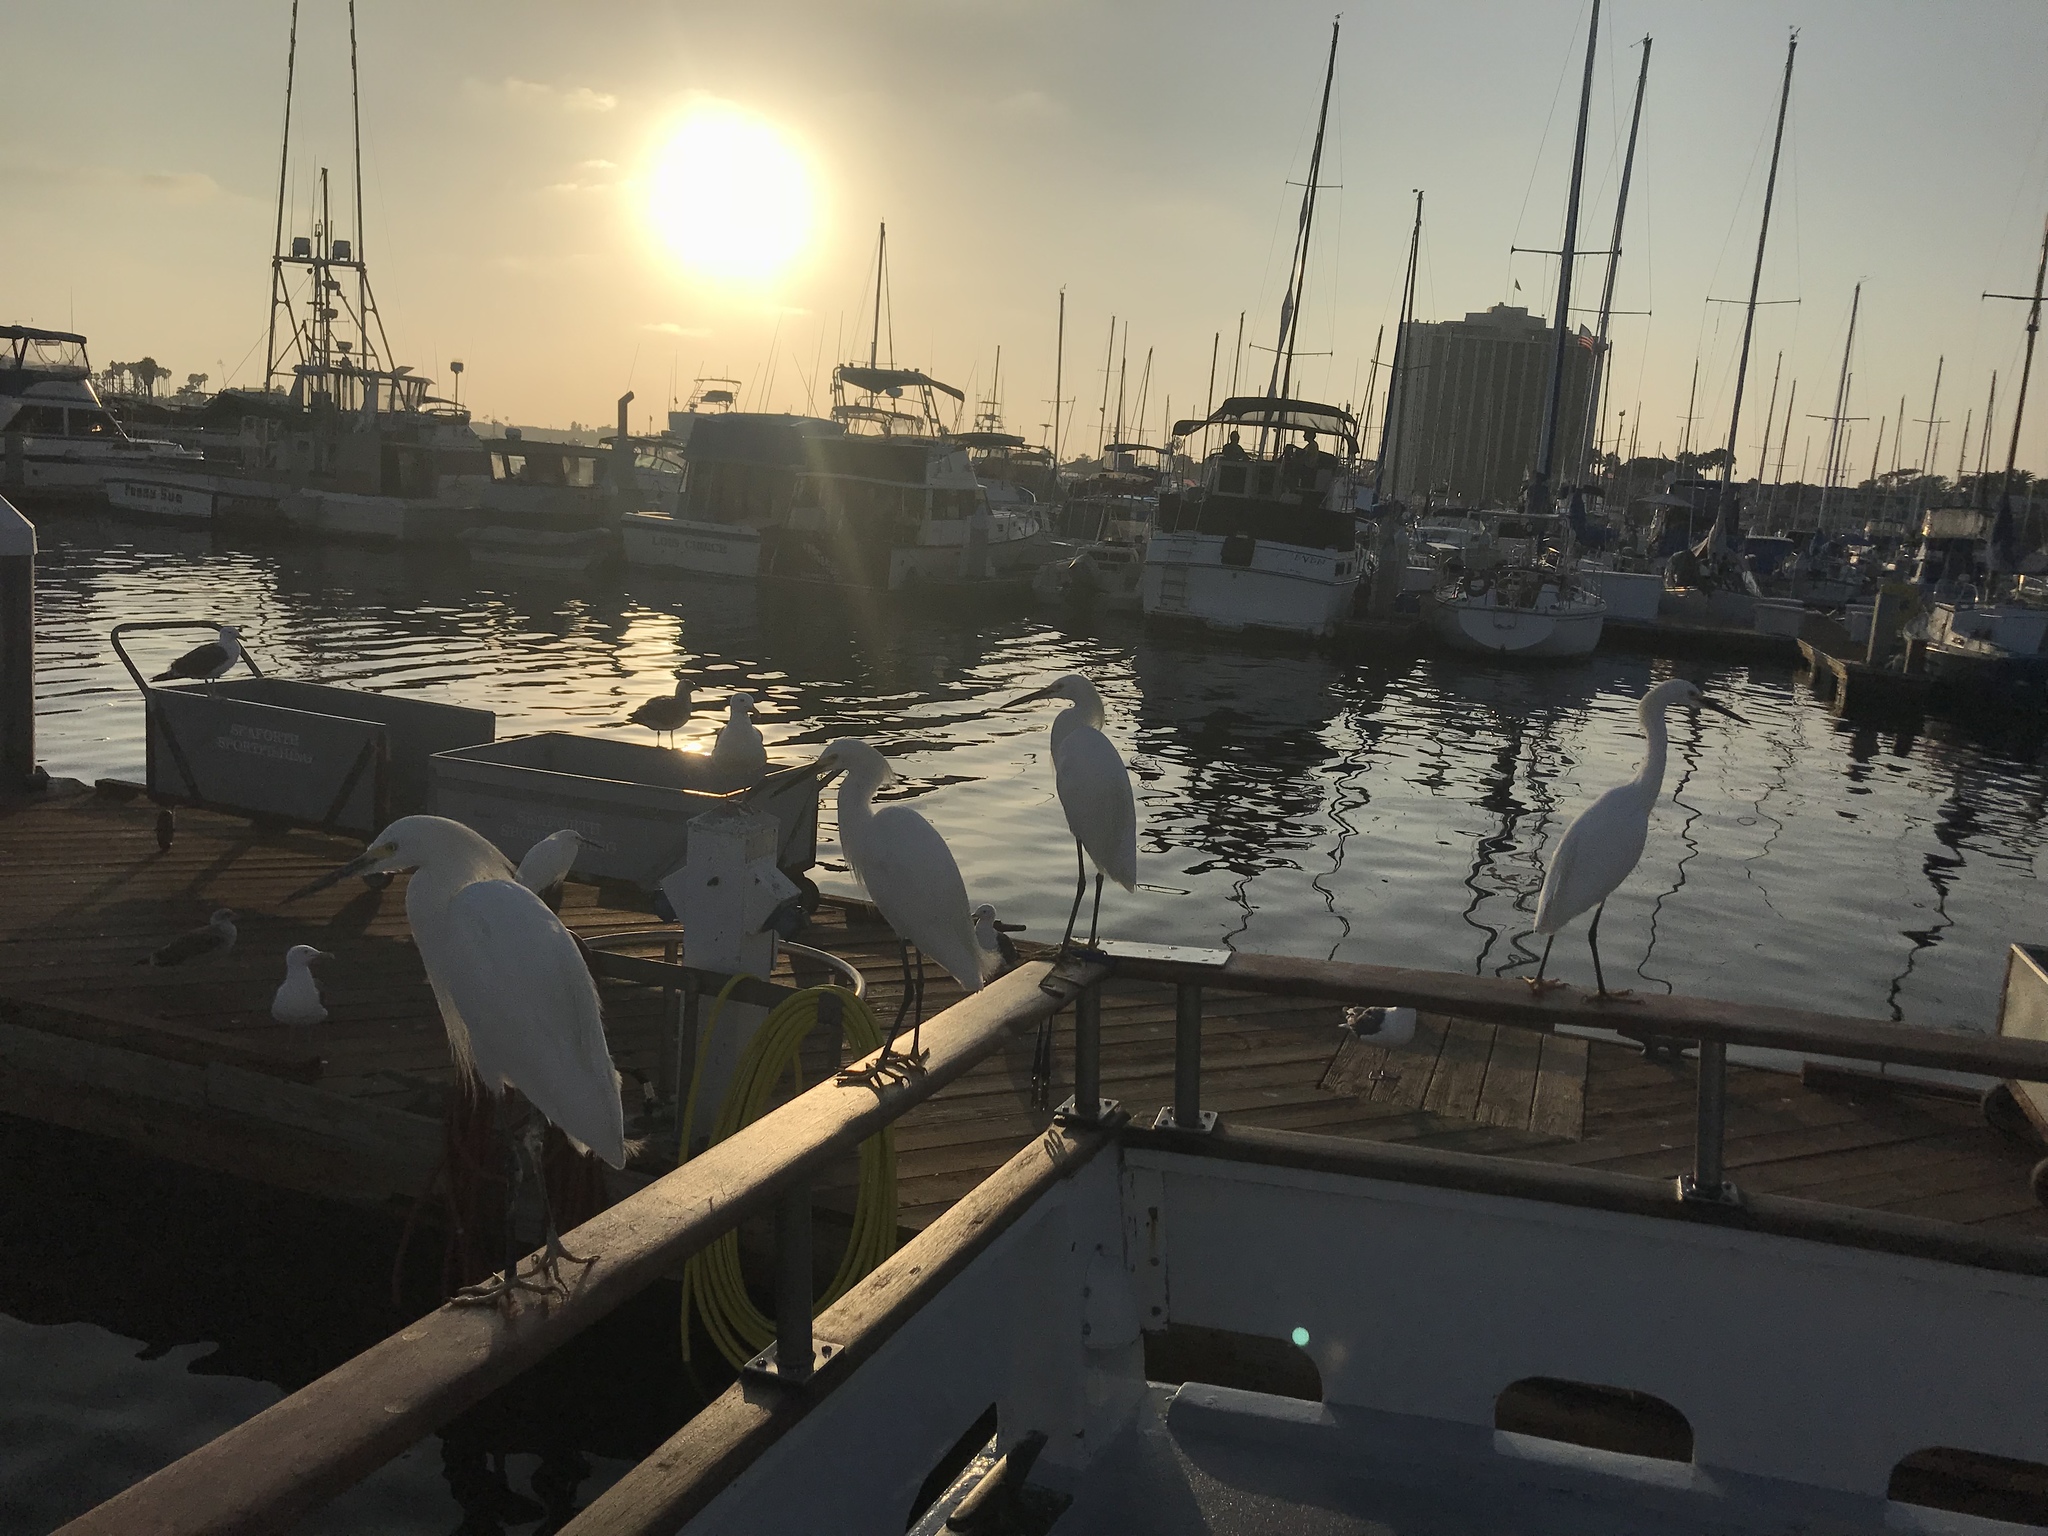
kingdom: Animalia
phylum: Chordata
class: Aves
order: Pelecaniformes
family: Ardeidae
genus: Egretta
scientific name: Egretta thula
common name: Snowy egret
